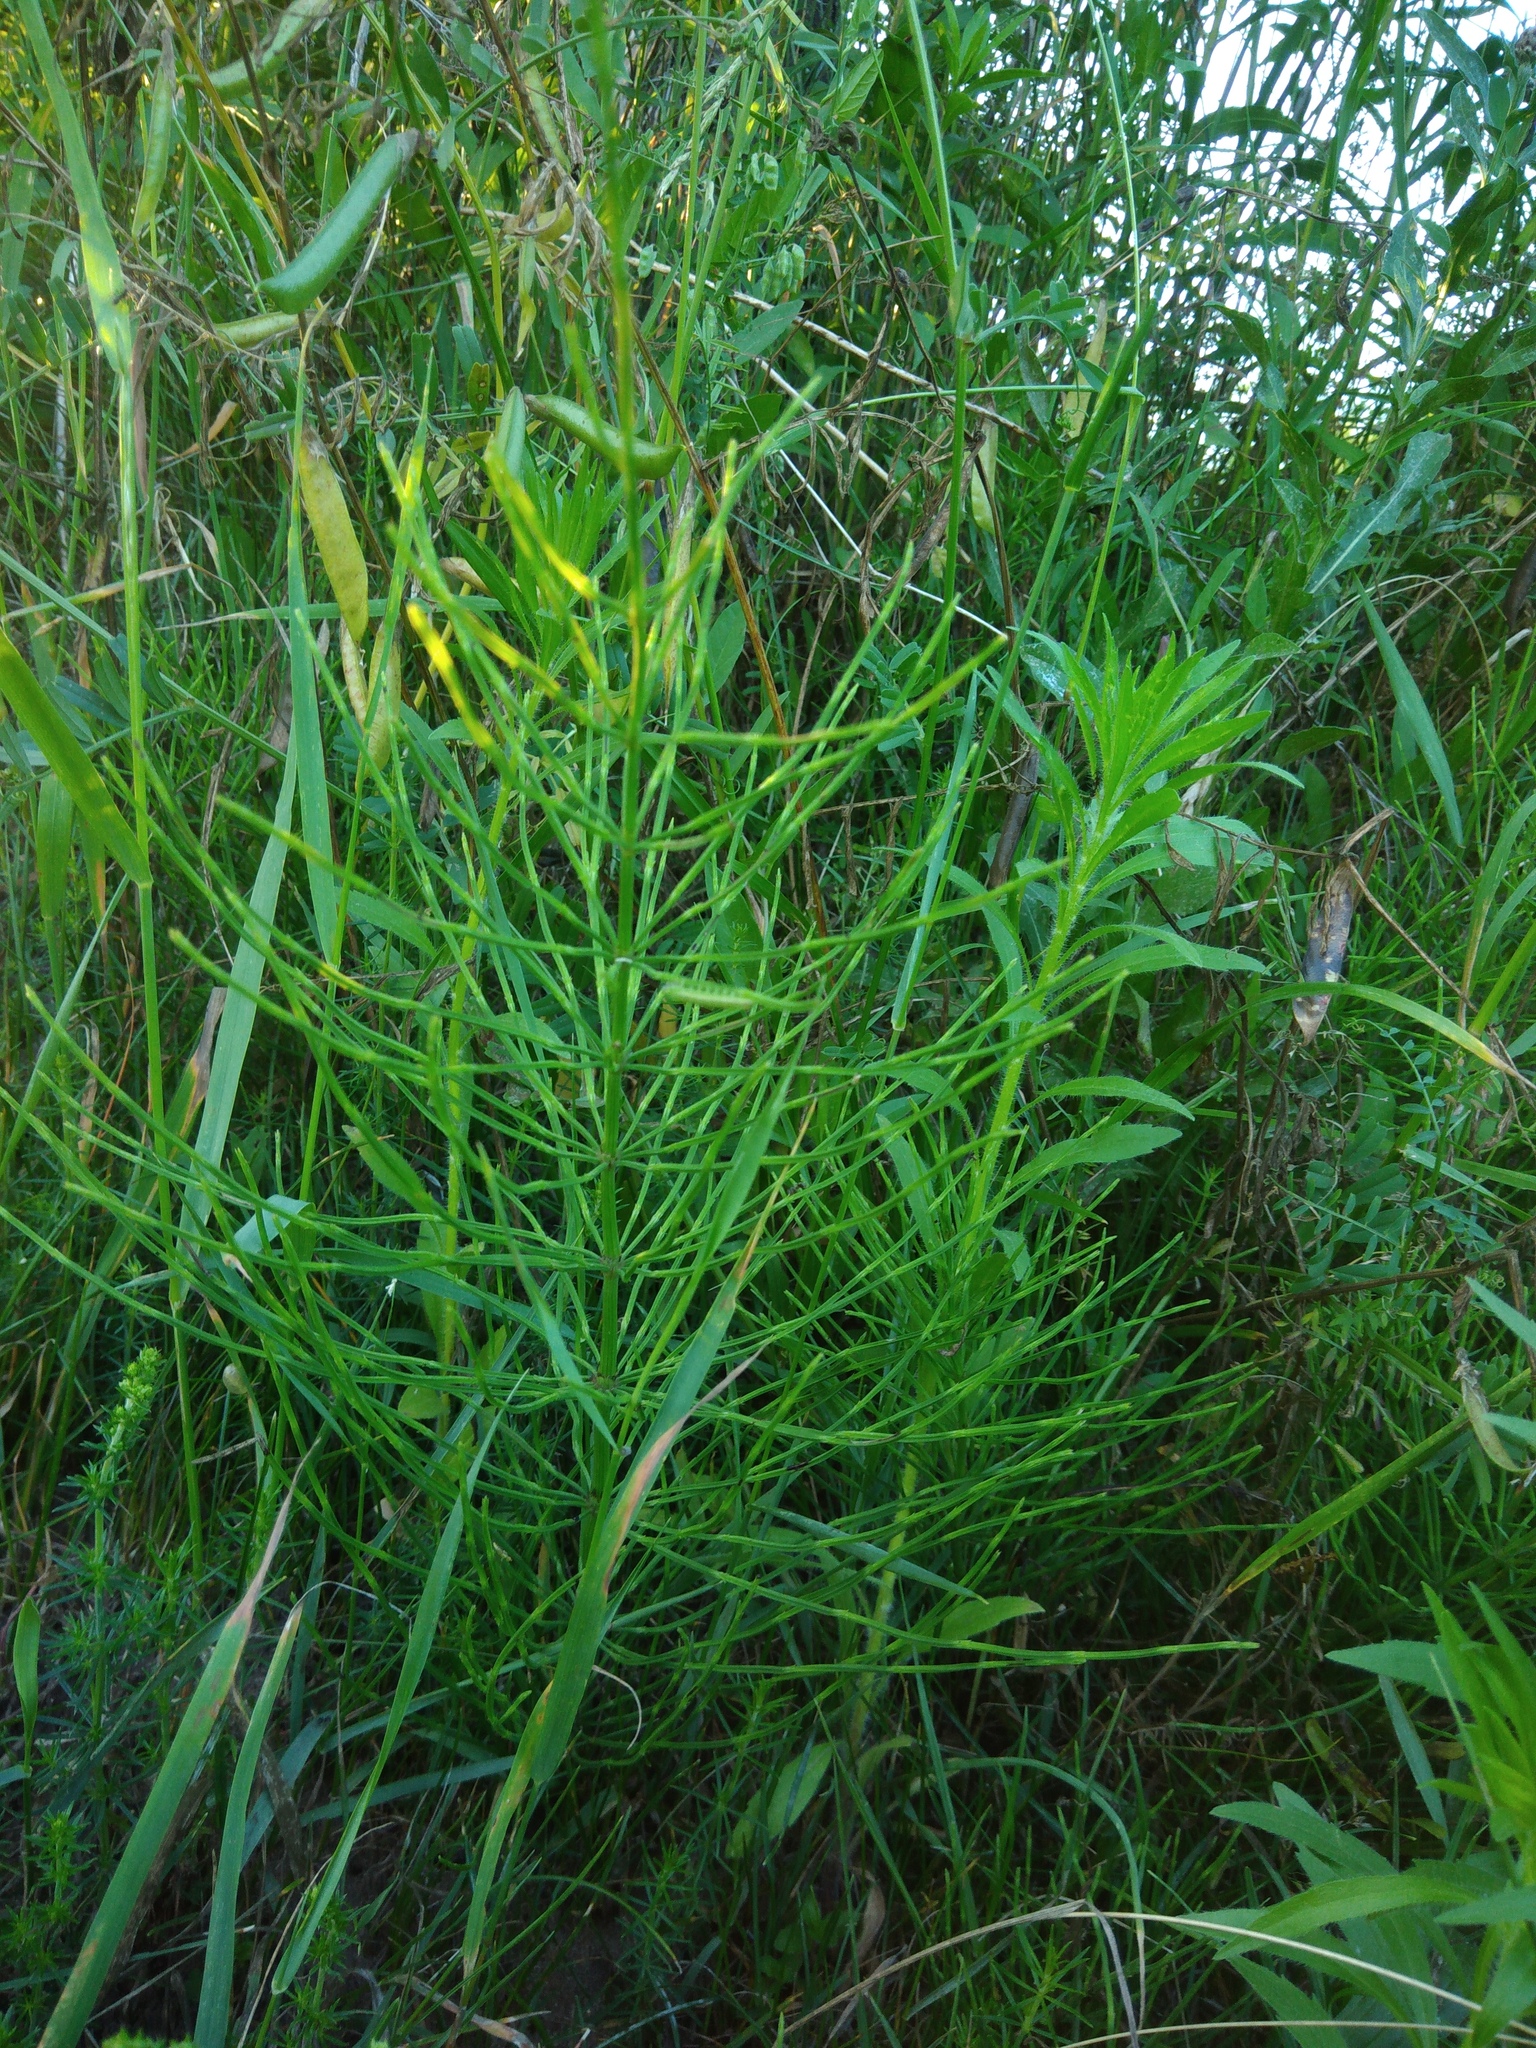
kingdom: Plantae
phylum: Tracheophyta
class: Polypodiopsida
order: Equisetales
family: Equisetaceae
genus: Equisetum
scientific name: Equisetum arvense
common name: Field horsetail
